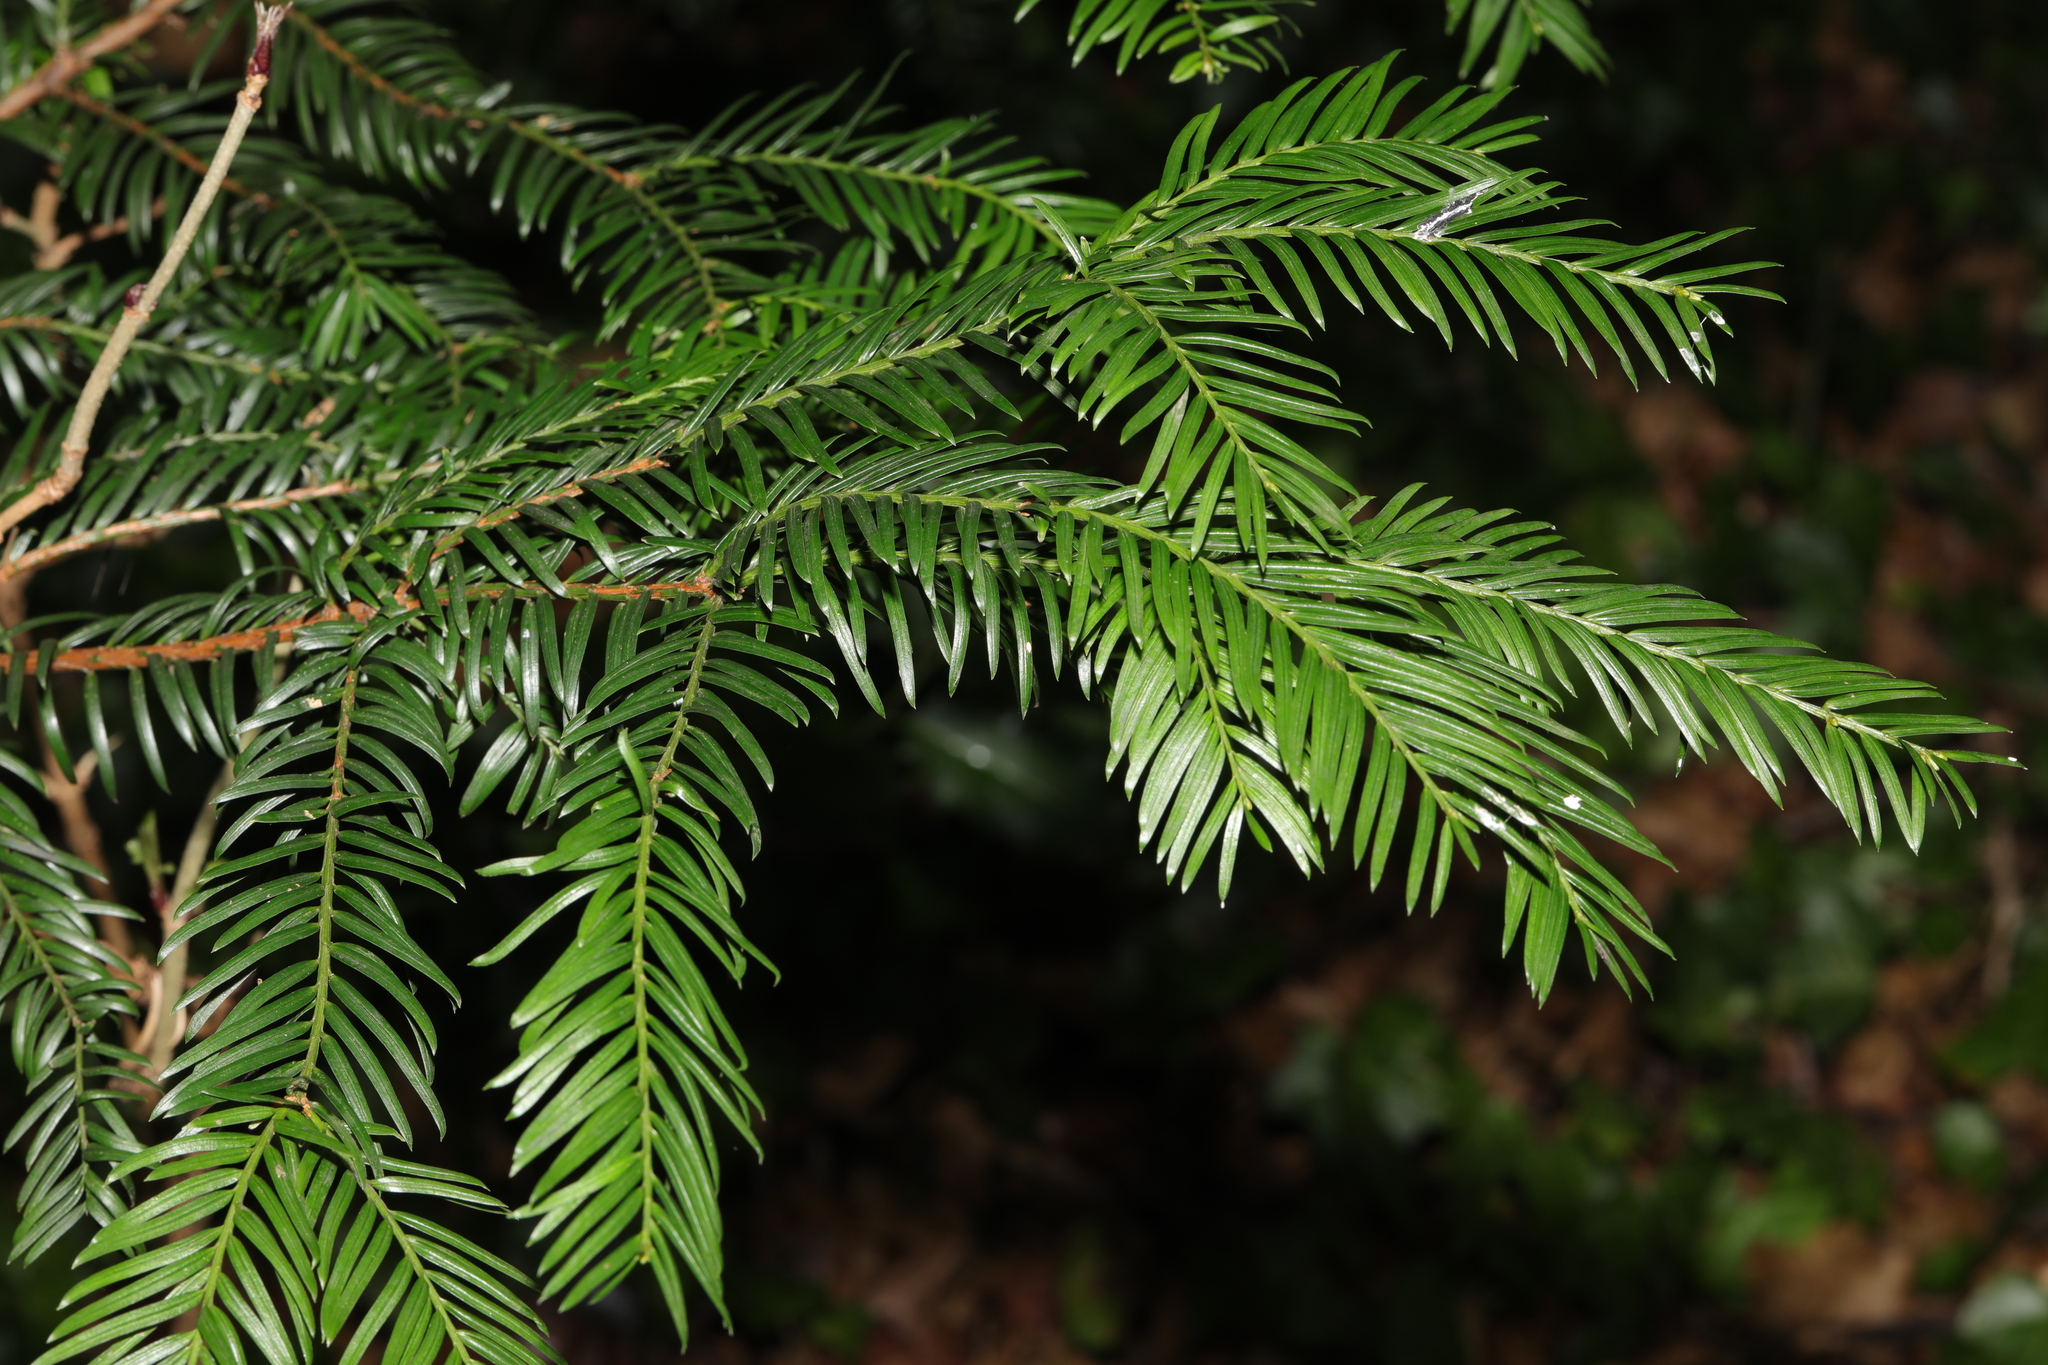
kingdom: Plantae
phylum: Tracheophyta
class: Pinopsida
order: Pinales
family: Taxaceae
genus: Taxus
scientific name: Taxus baccata
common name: Yew
